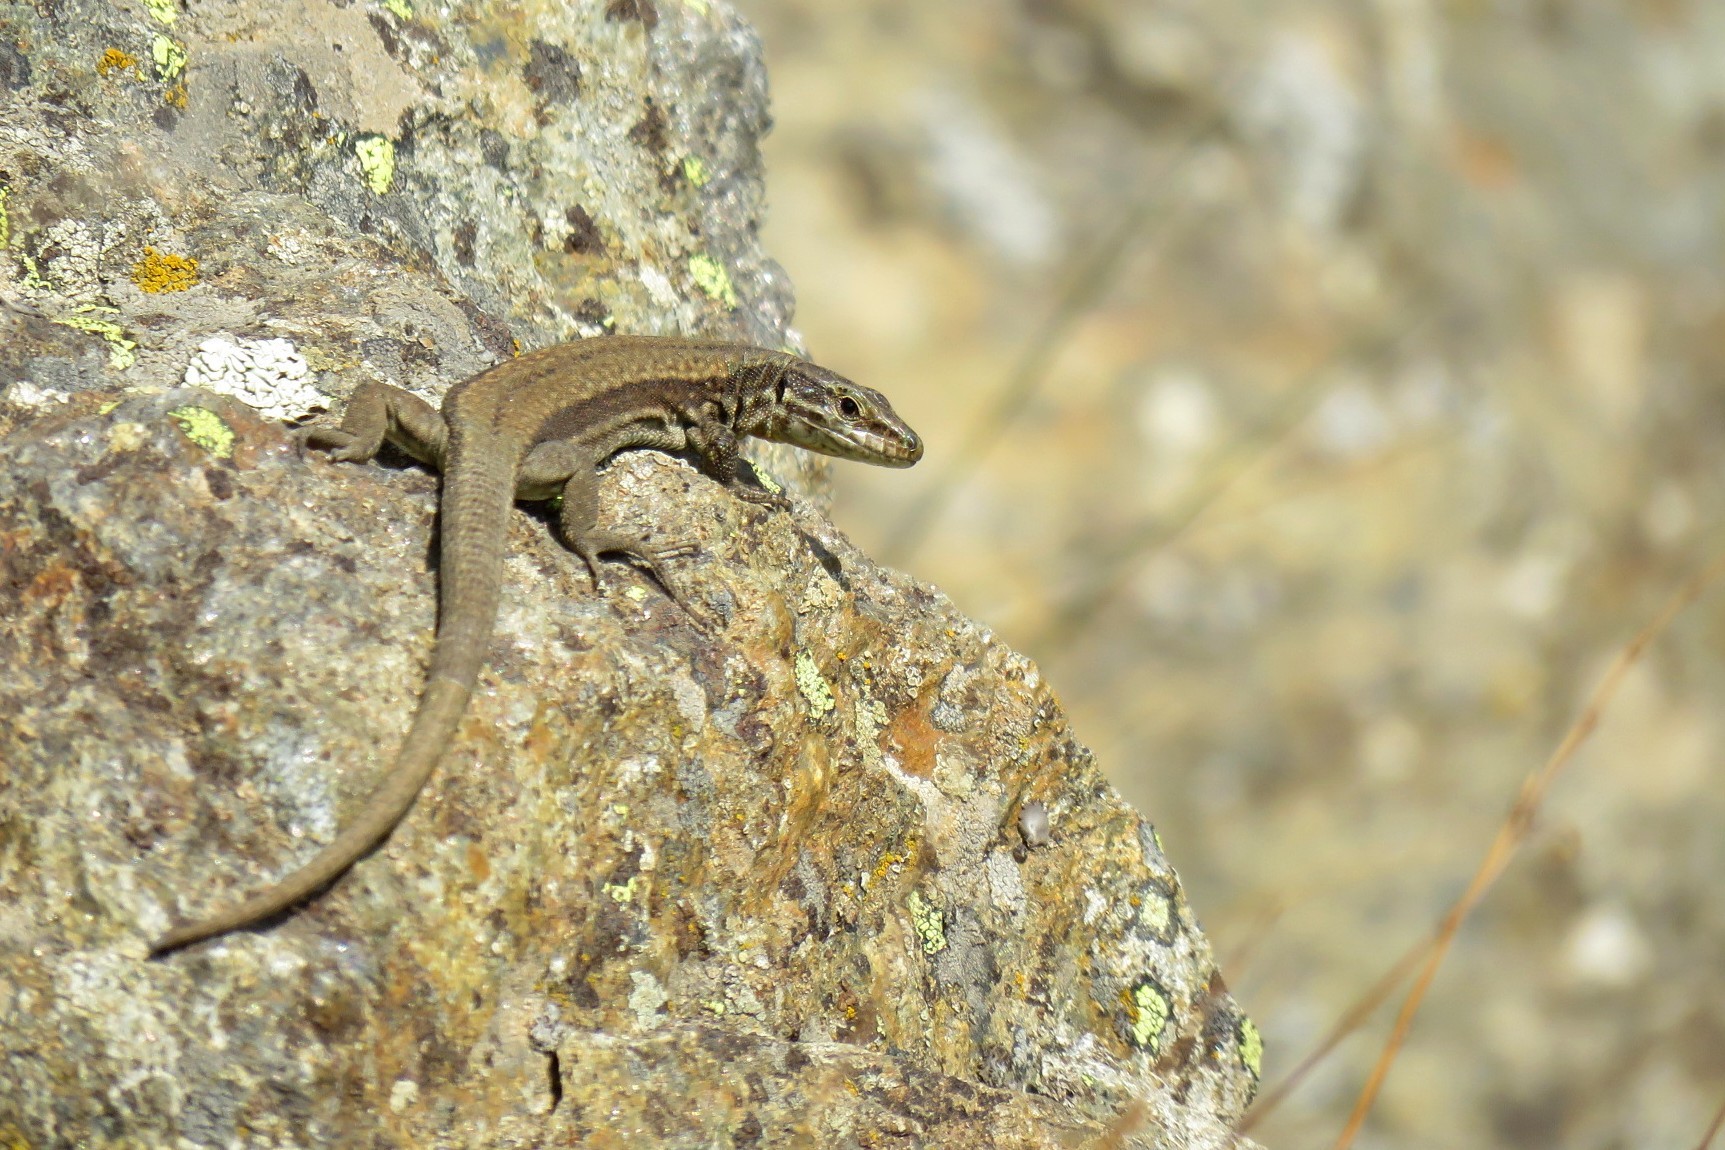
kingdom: Animalia
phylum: Chordata
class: Squamata
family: Lacertidae
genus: Podarcis
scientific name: Podarcis muralis
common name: Common wall lizard
